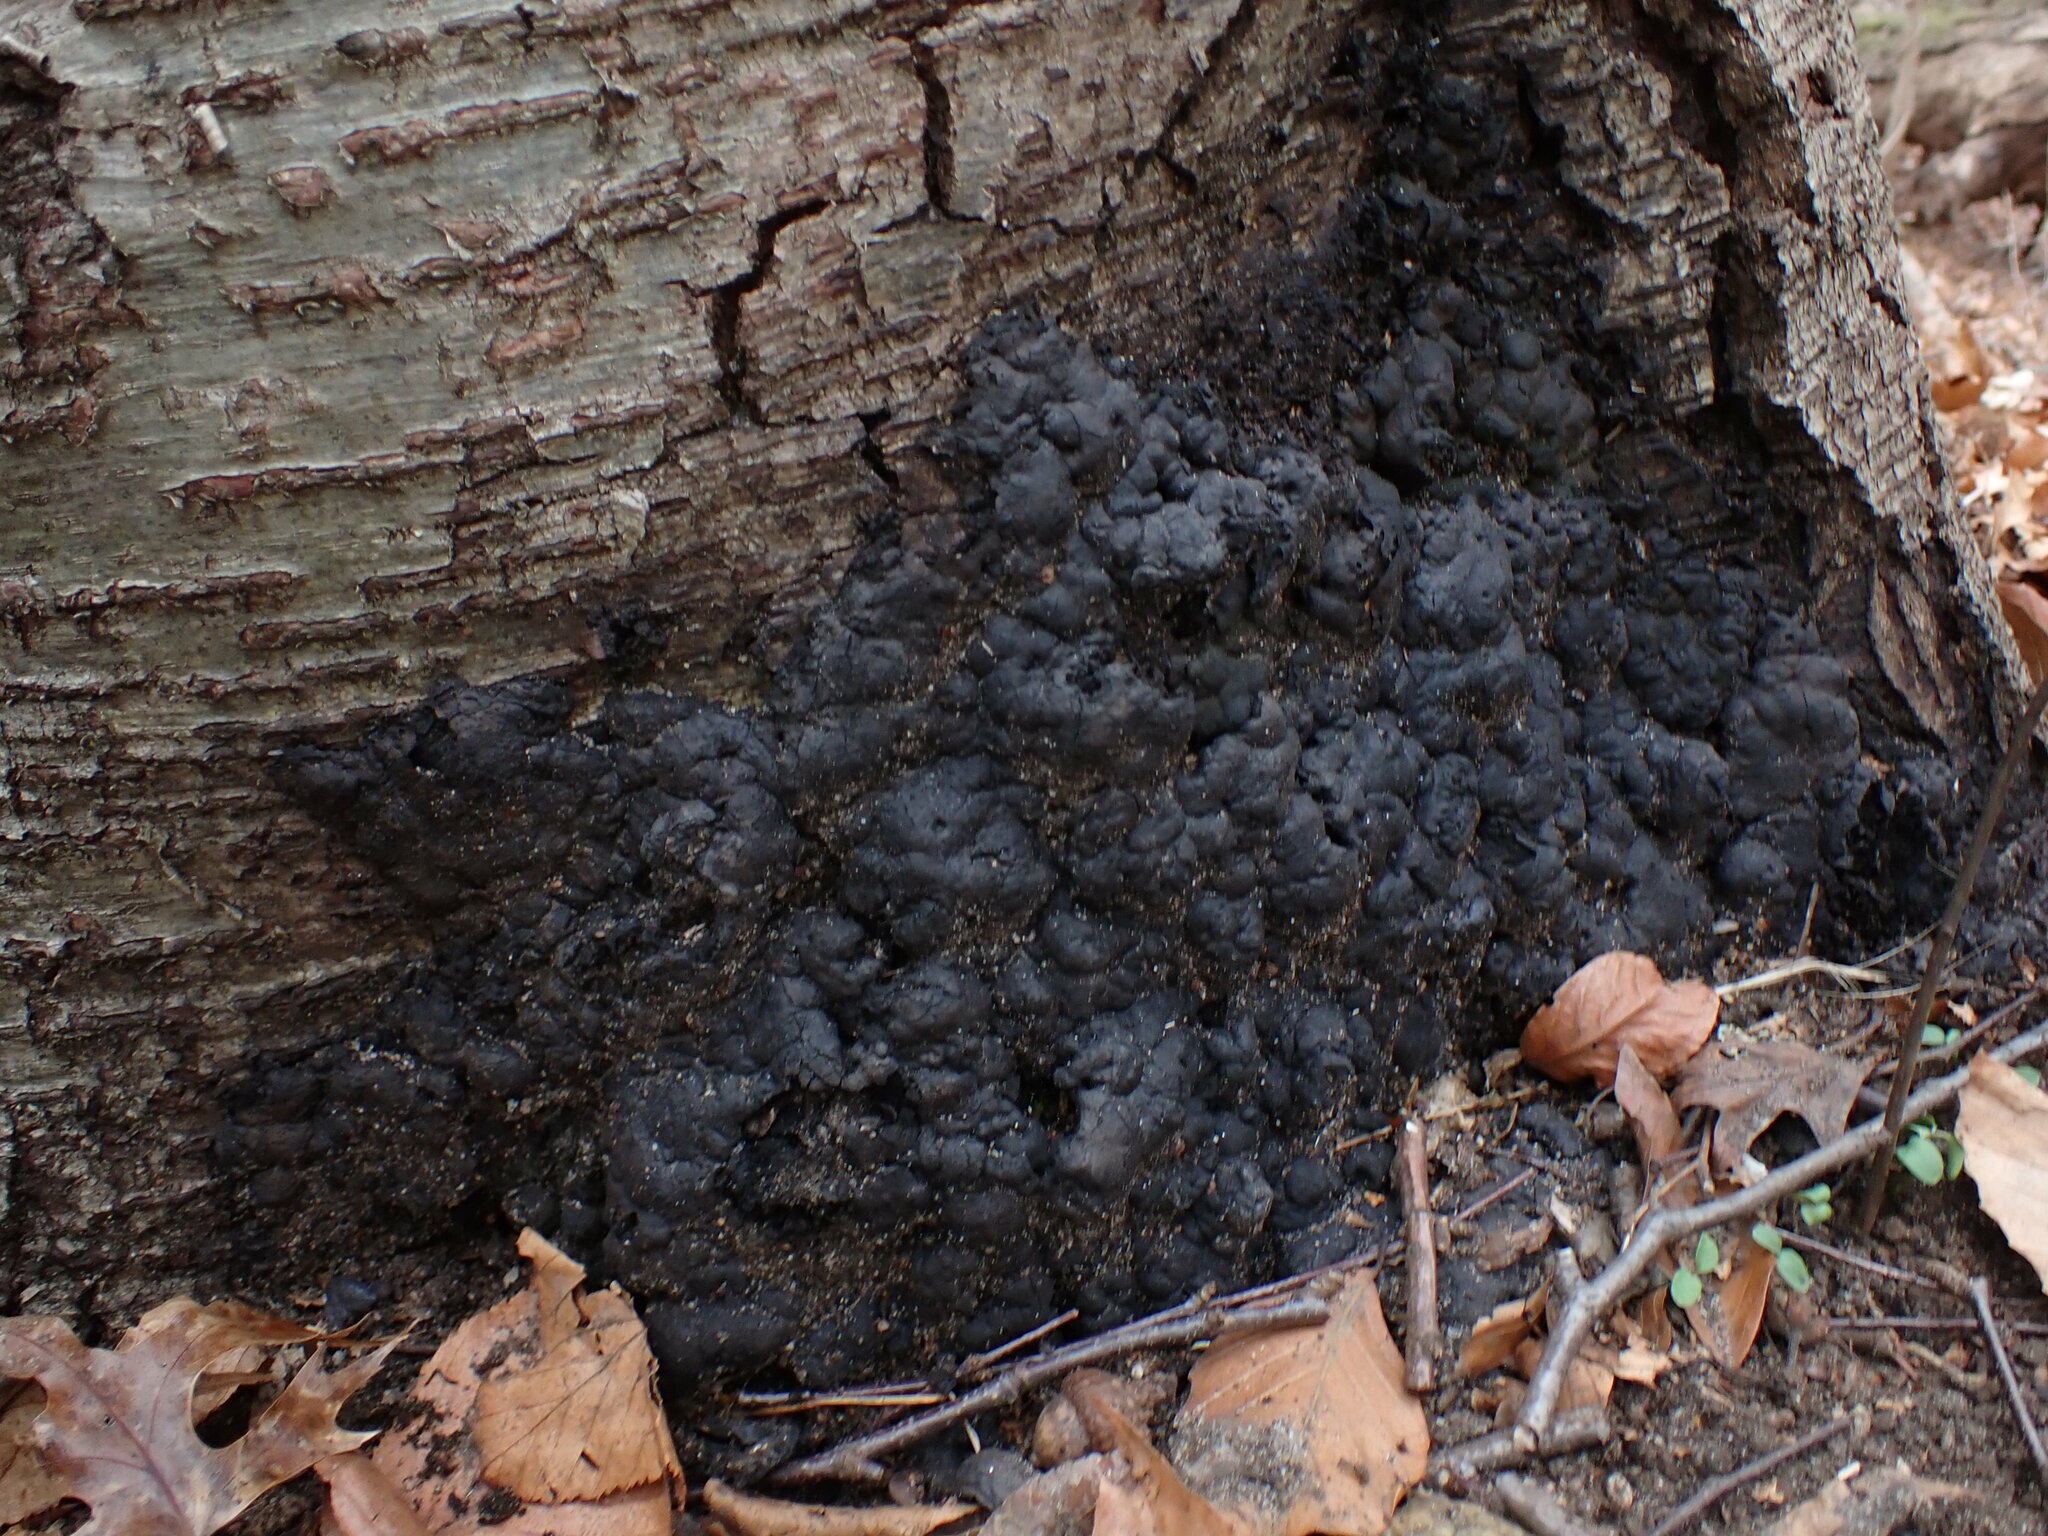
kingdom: Fungi
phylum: Ascomycota
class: Sordariomycetes
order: Xylariales
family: Xylariaceae
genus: Kretzschmaria
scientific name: Kretzschmaria deusta
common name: Brittle cinder
